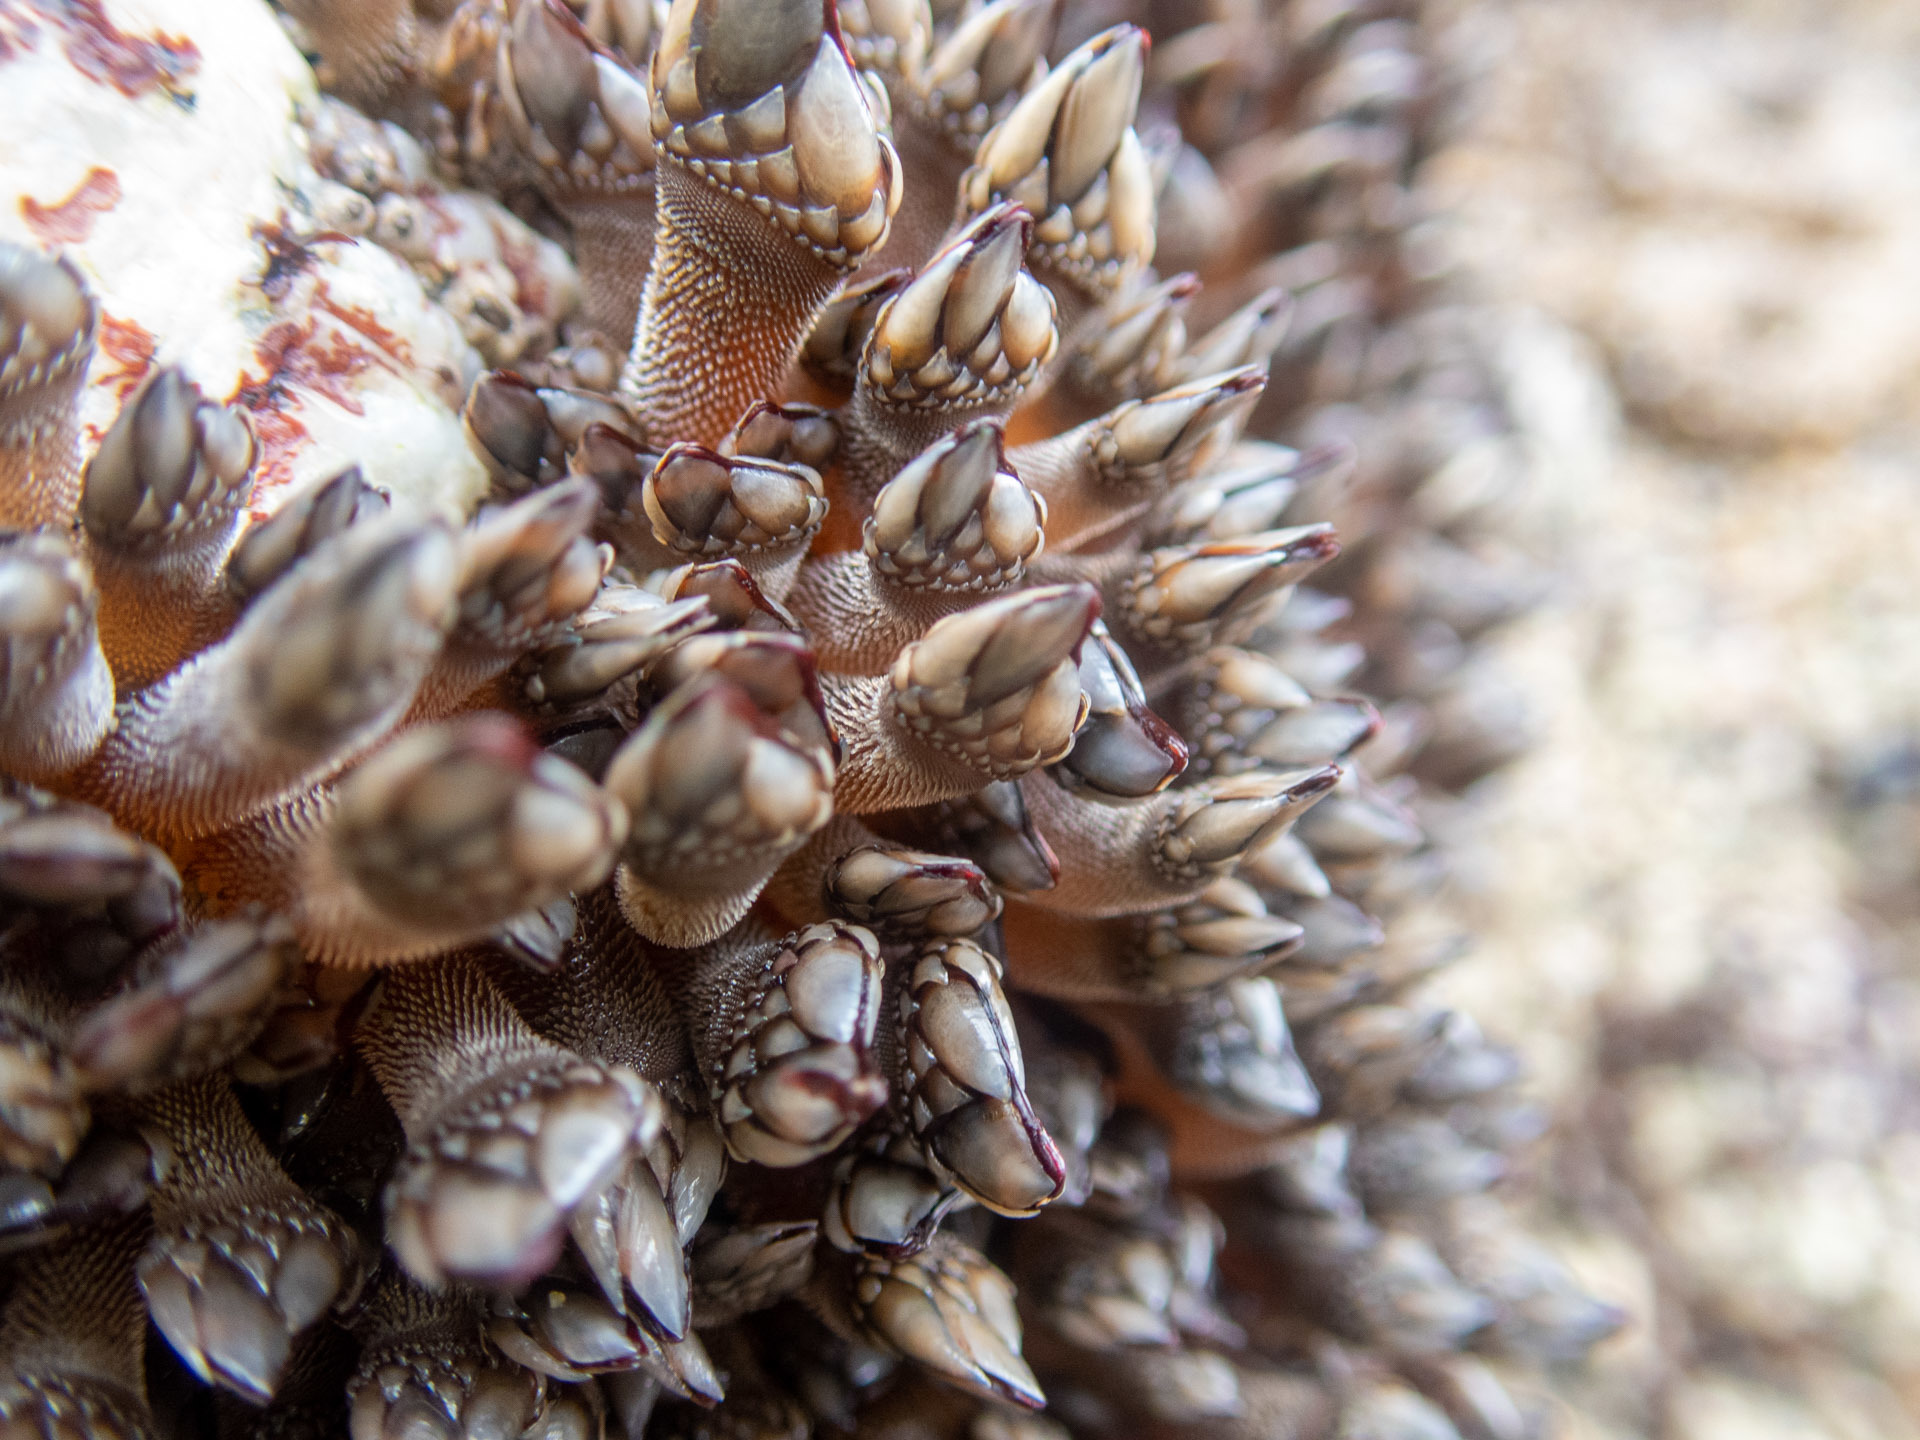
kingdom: Animalia
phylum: Arthropoda
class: Maxillopoda
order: Pedunculata
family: Pollicipedidae
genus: Pollicipes
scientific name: Pollicipes polymerus
